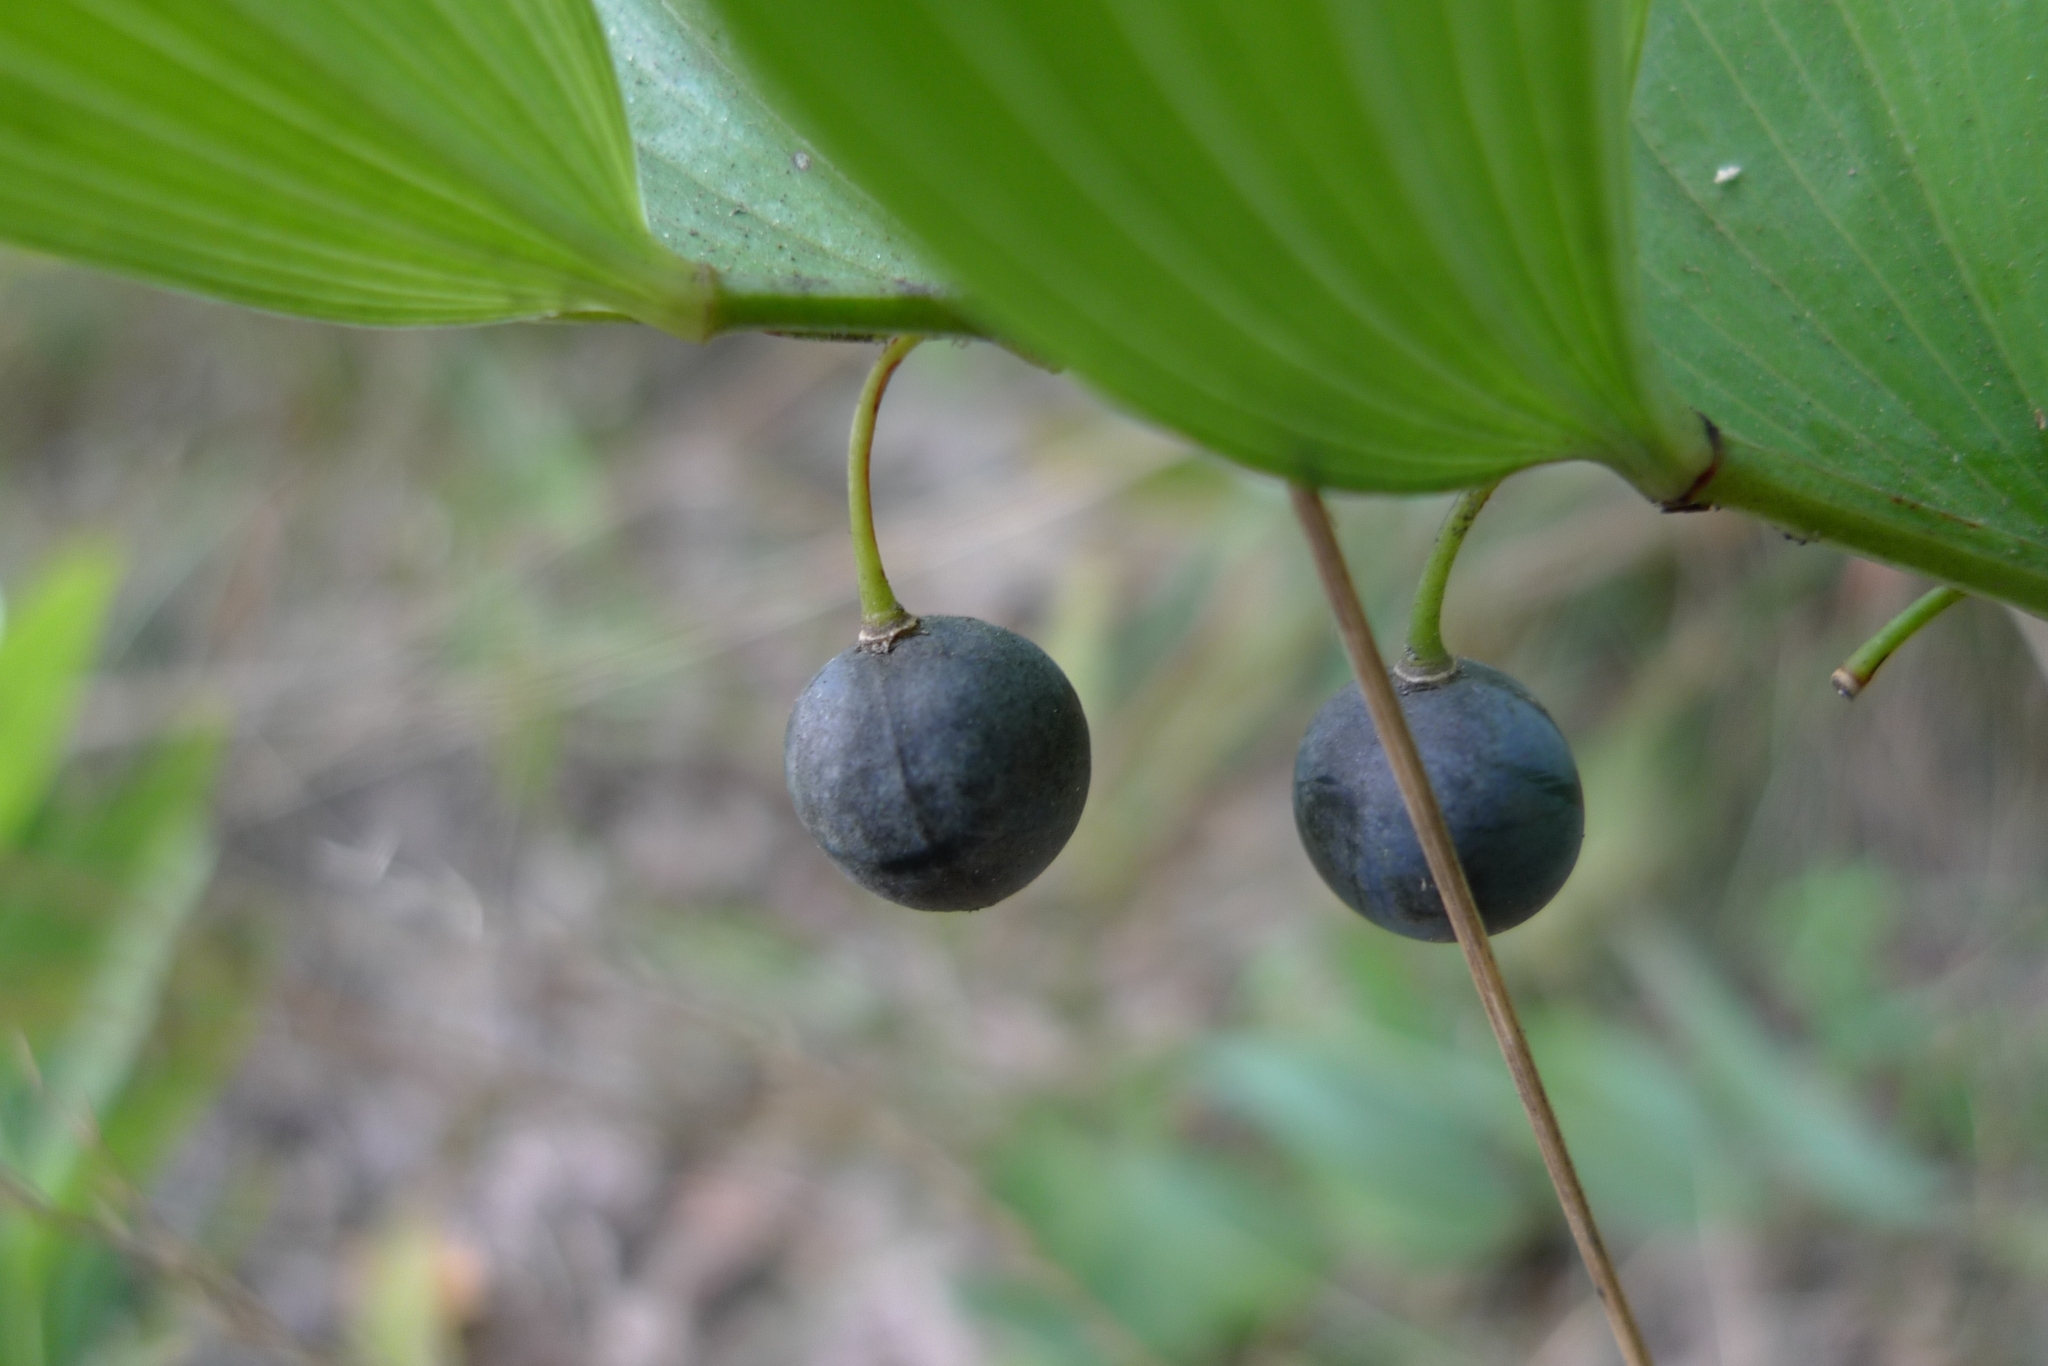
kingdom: Plantae
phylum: Tracheophyta
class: Liliopsida
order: Asparagales
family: Asparagaceae
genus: Polygonatum
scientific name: Polygonatum odoratum
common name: Angular solomon's-seal
